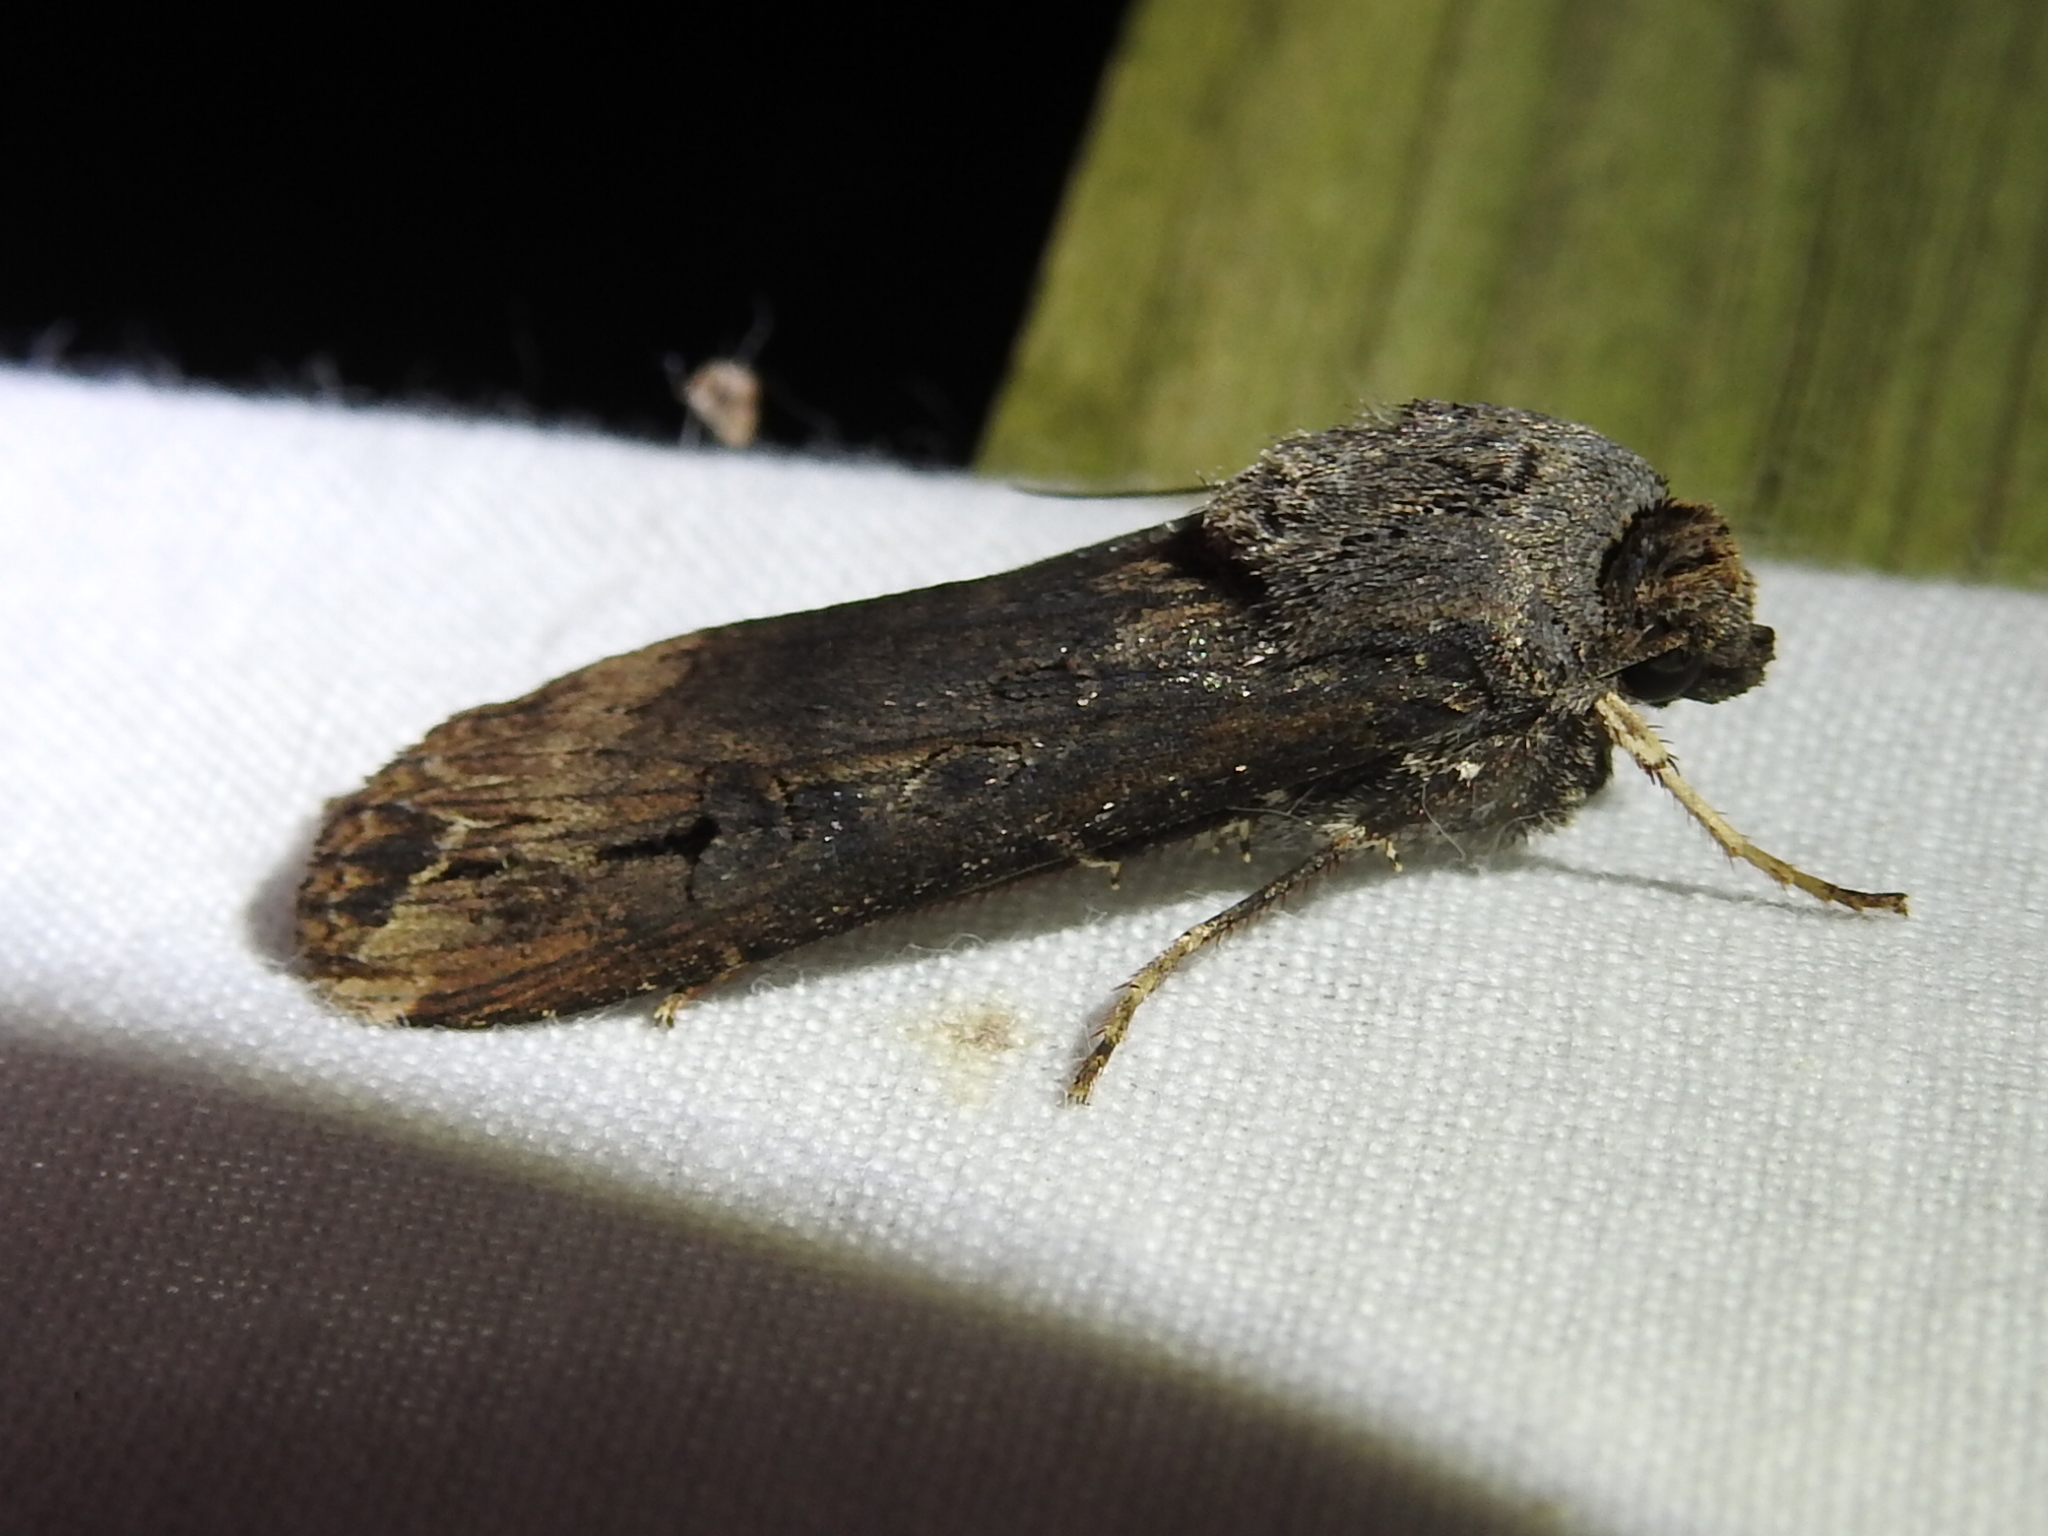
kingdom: Animalia
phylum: Arthropoda
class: Insecta
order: Lepidoptera
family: Noctuidae
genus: Agrotis
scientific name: Agrotis ipsilon
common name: Dark sword-grass
